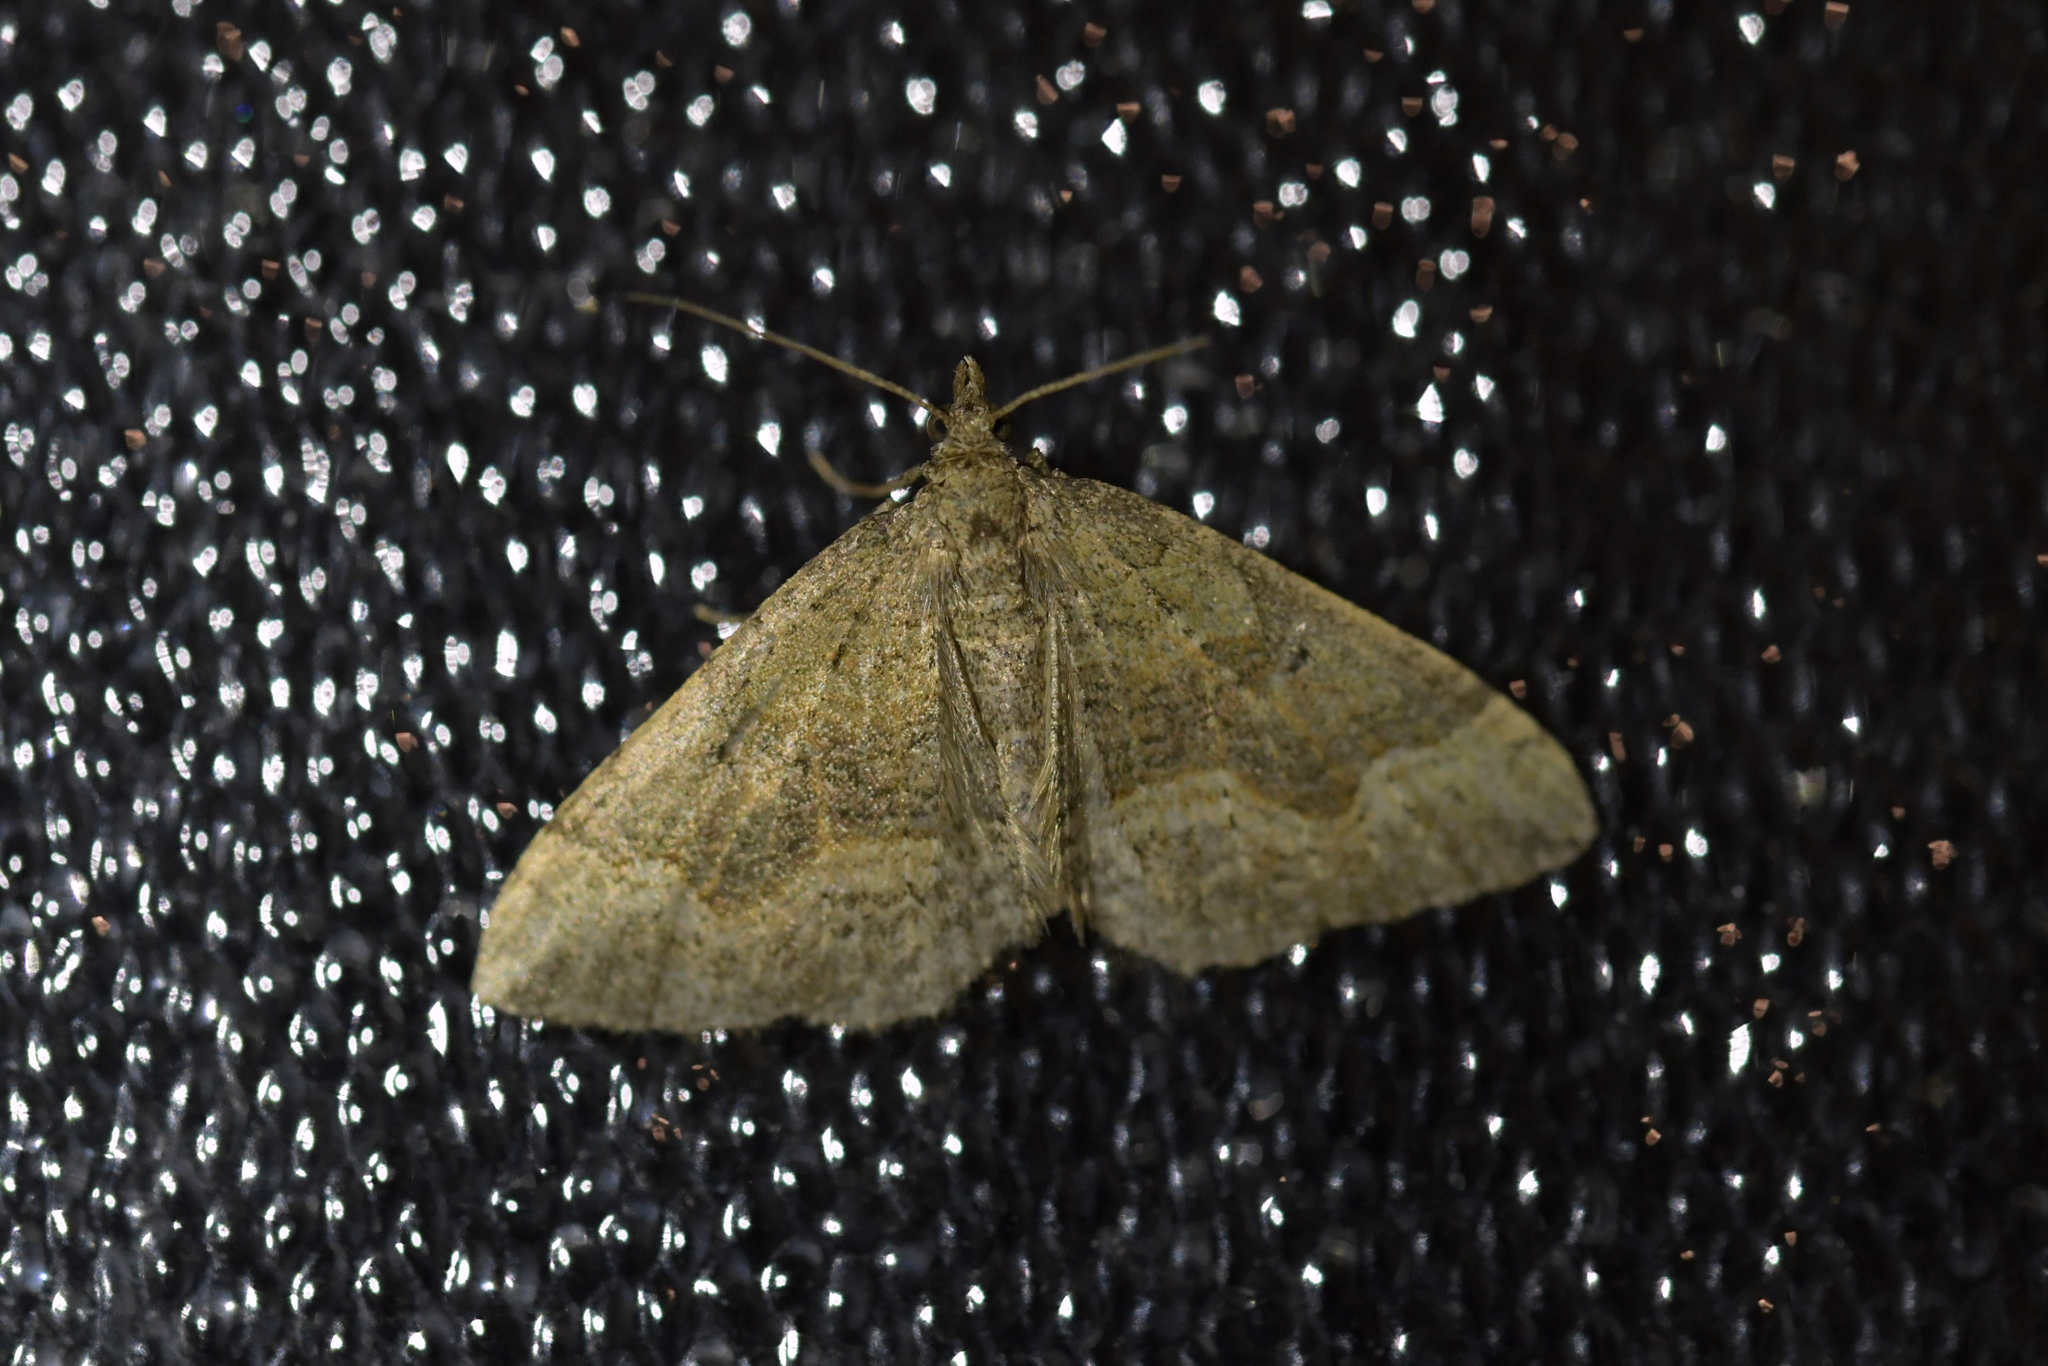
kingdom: Animalia
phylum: Arthropoda
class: Insecta
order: Lepidoptera
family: Geometridae
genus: Epyaxa
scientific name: Epyaxa rosearia
